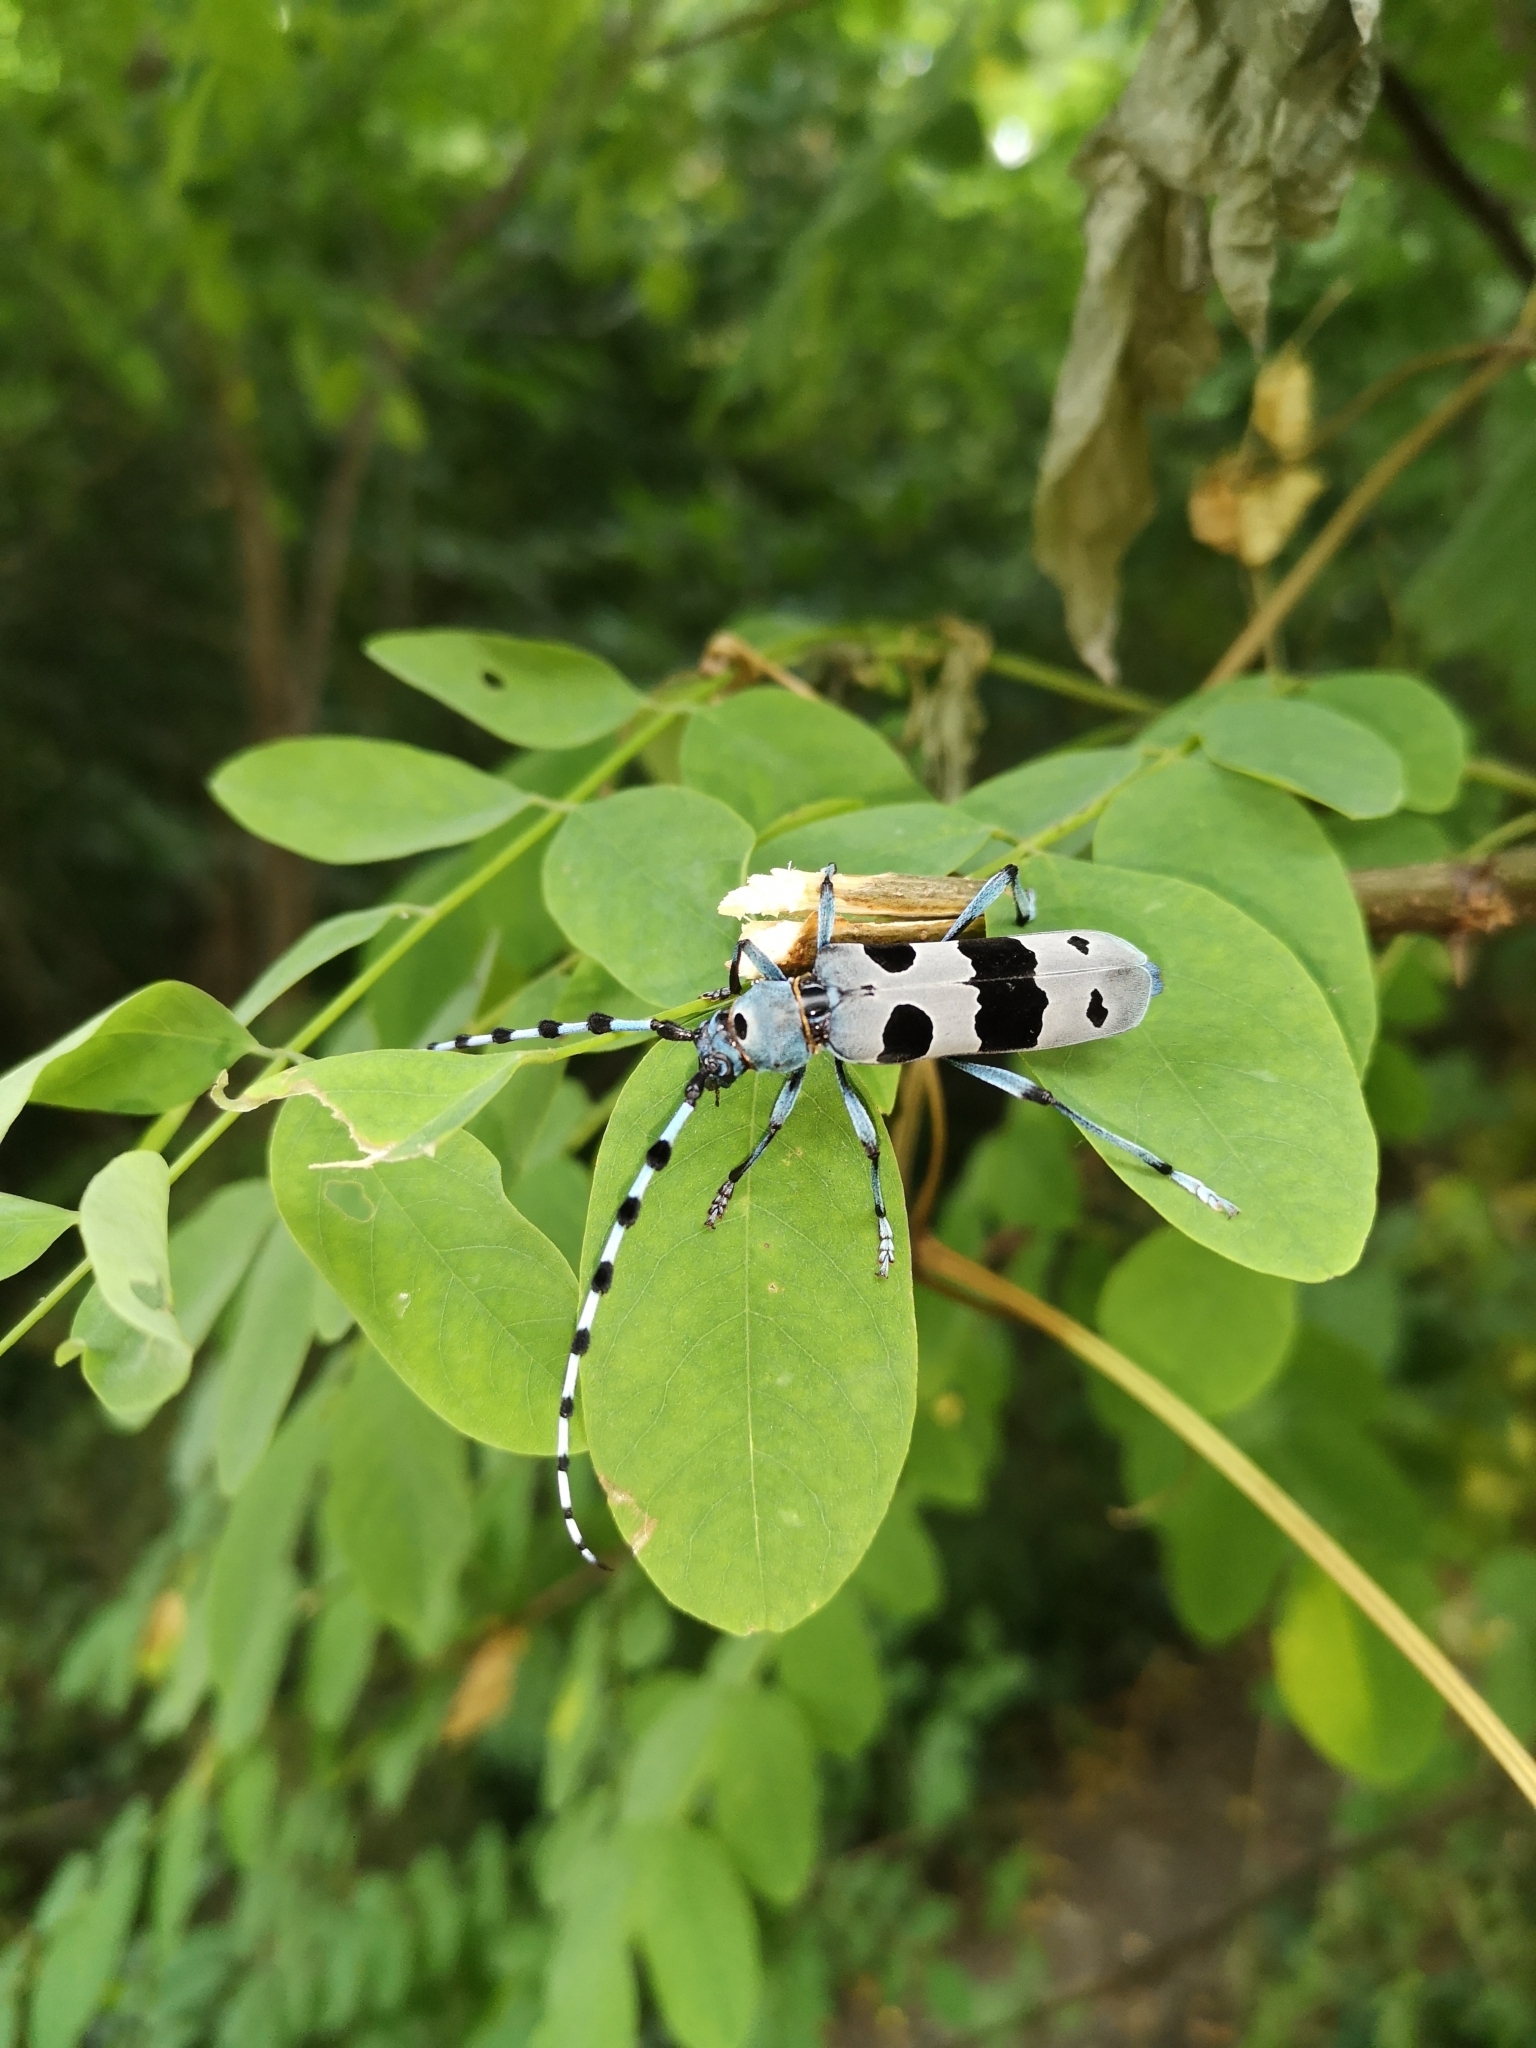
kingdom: Animalia
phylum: Arthropoda
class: Insecta
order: Coleoptera
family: Cerambycidae
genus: Rosalia
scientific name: Rosalia alpina
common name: Rosalia longicorn
